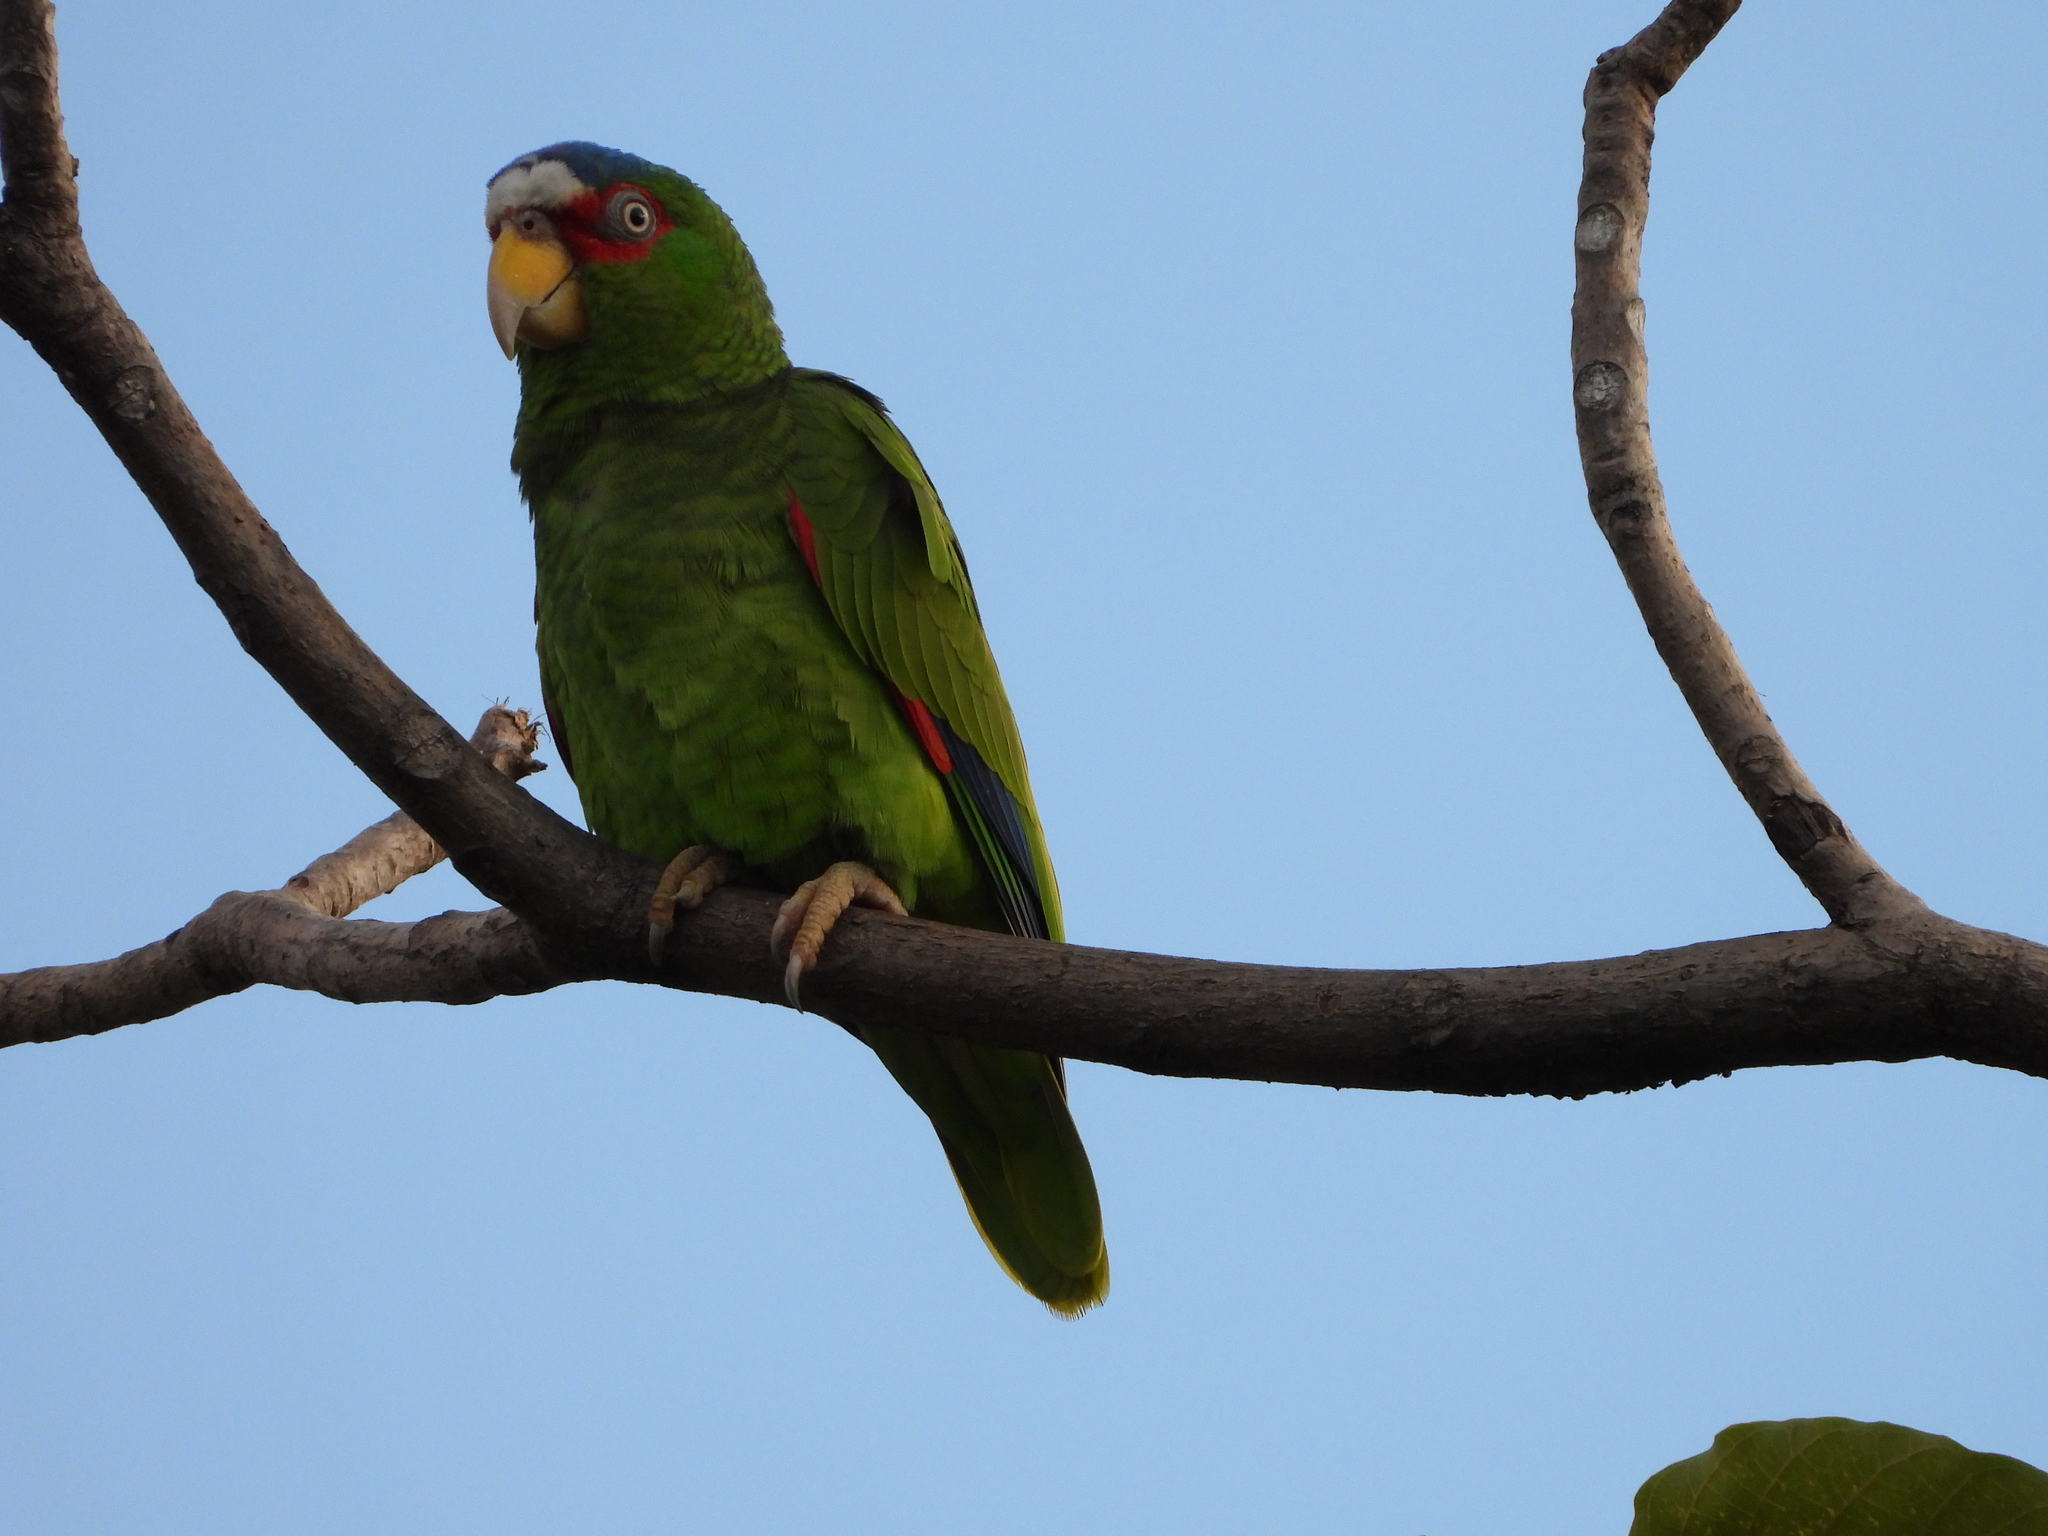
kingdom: Animalia
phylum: Chordata
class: Aves
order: Psittaciformes
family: Psittacidae
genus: Amazona
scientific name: Amazona albifrons
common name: White-fronted amazon
